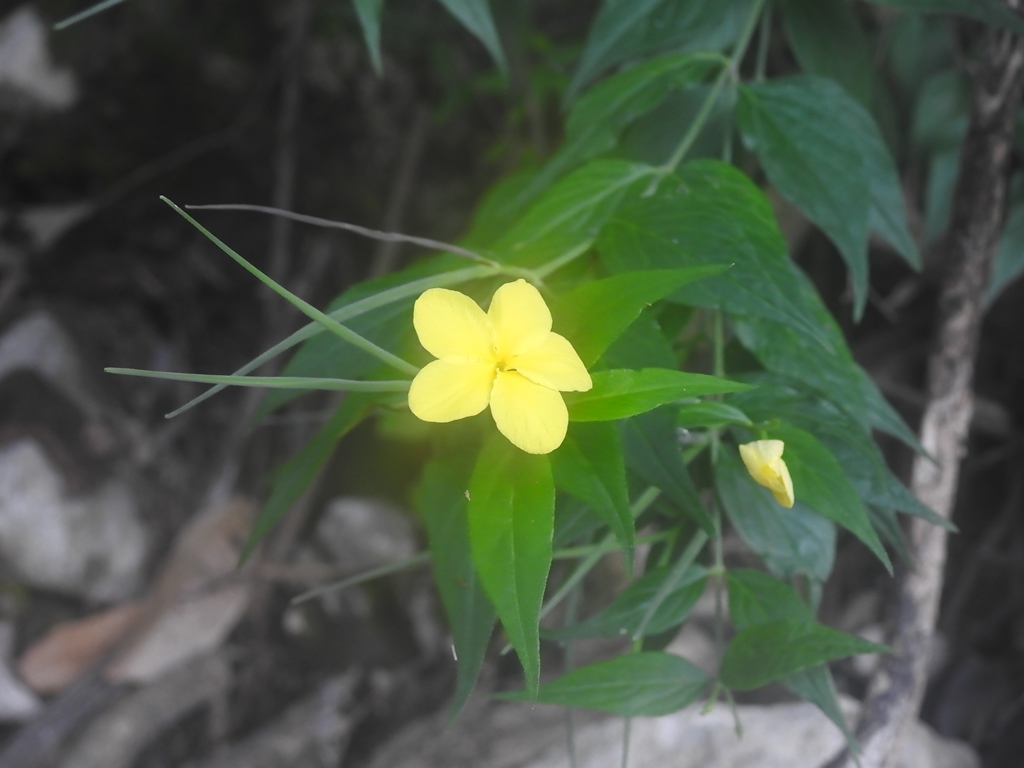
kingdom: Plantae
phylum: Tracheophyta
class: Magnoliopsida
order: Gentianales
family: Apocynaceae
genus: Haplophyton
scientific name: Haplophyton cimicidum
